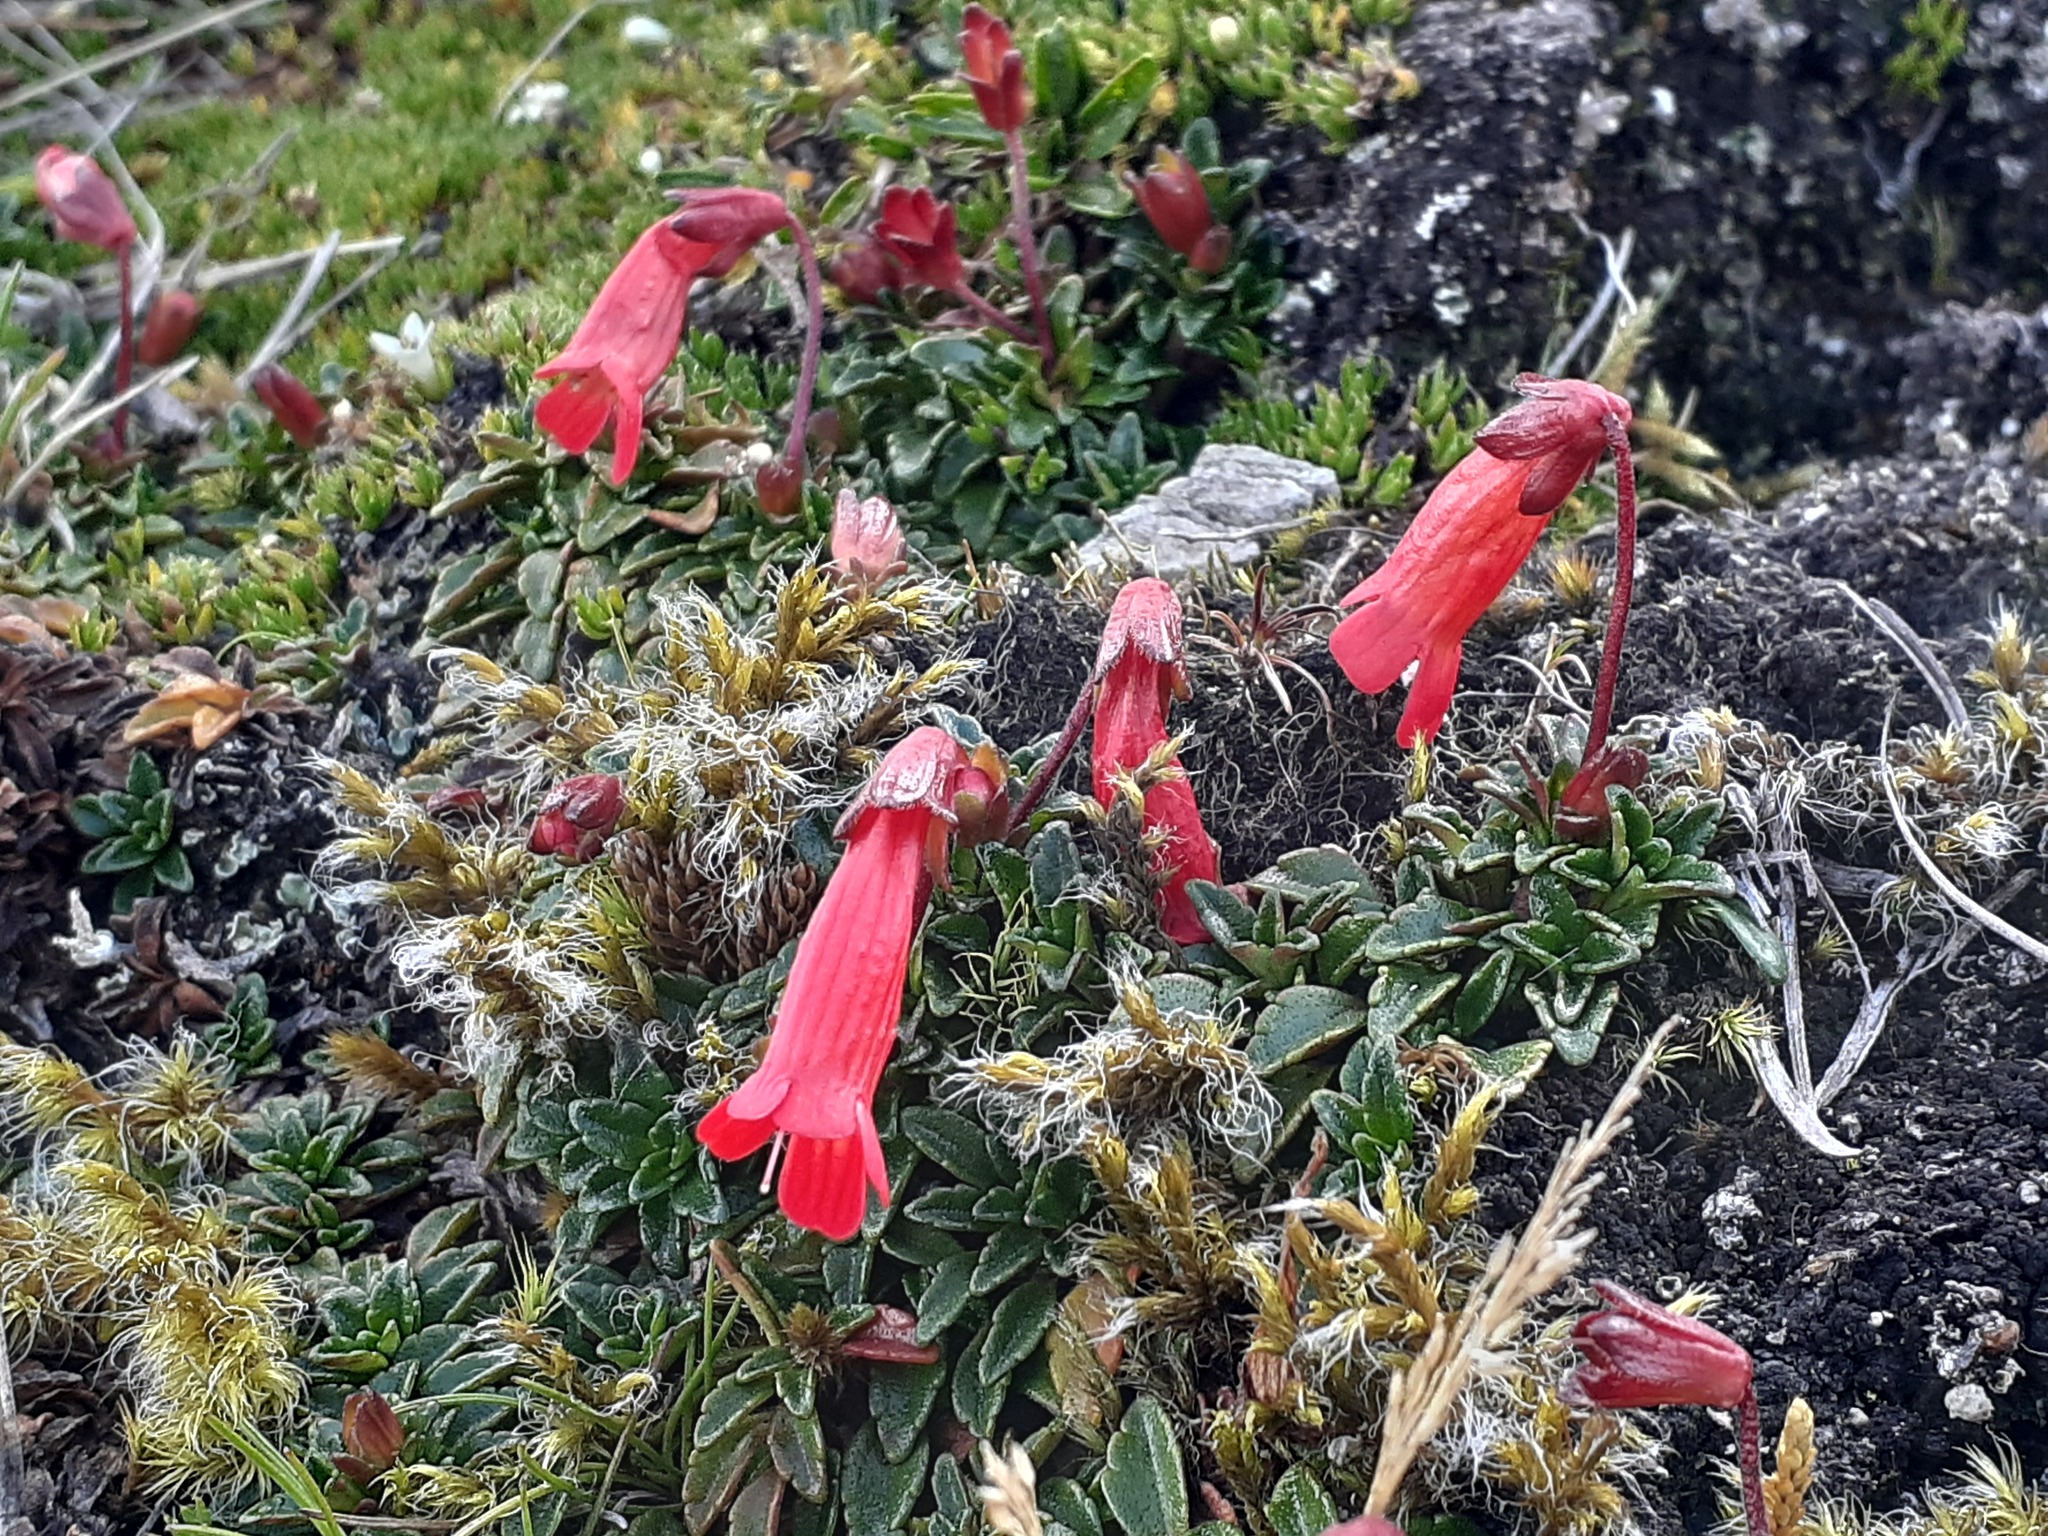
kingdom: Plantae
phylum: Tracheophyta
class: Magnoliopsida
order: Lamiales
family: Plantaginaceae
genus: Ourisia
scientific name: Ourisia chamaedrifolia
